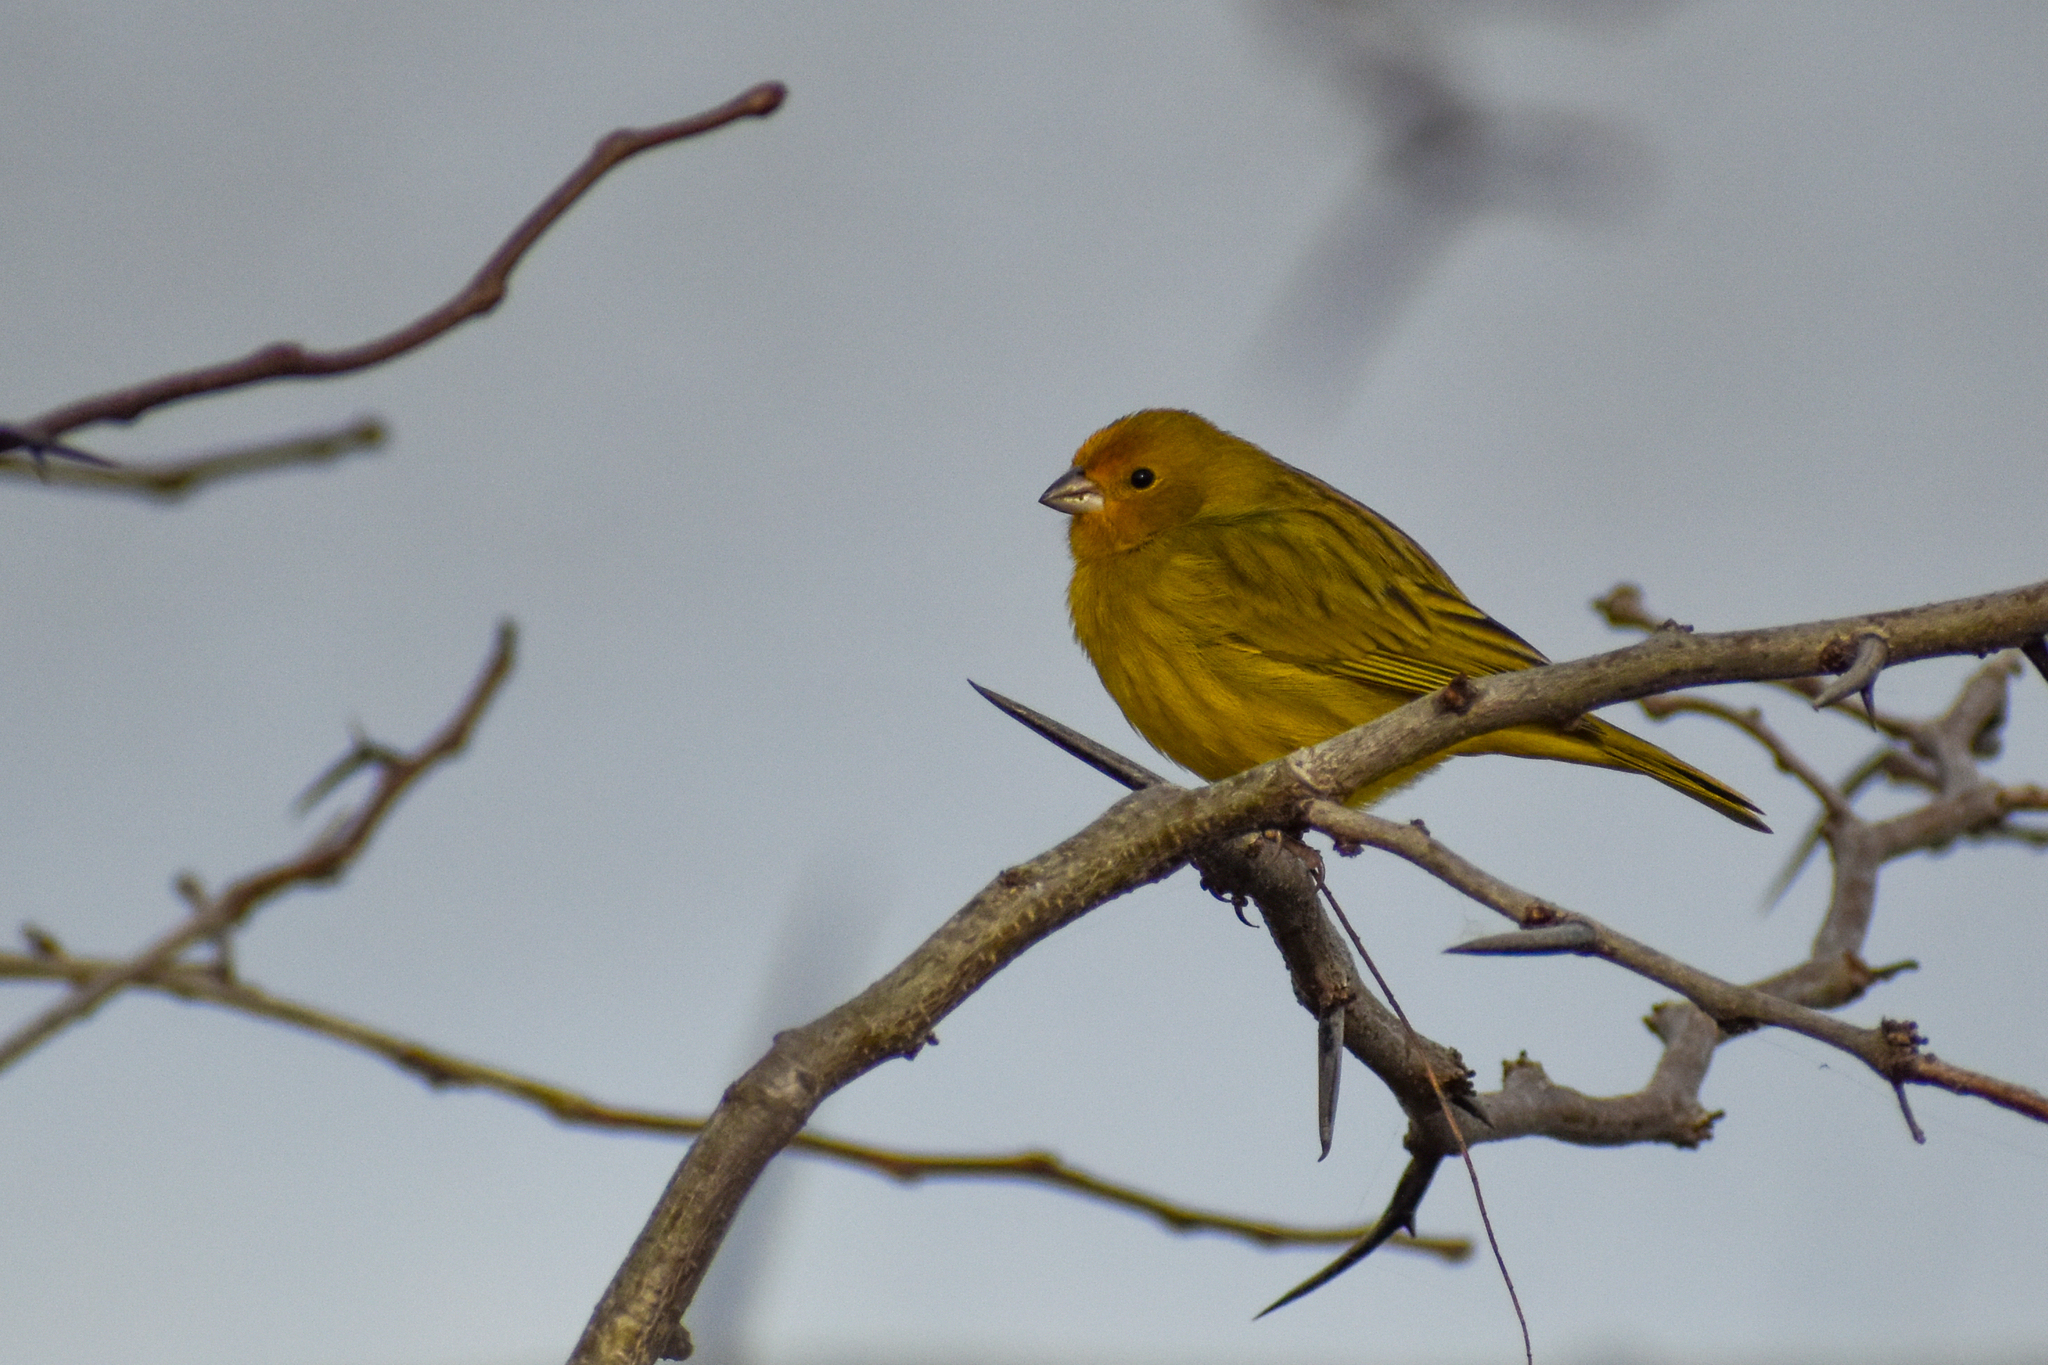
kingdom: Animalia
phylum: Chordata
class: Aves
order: Passeriformes
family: Thraupidae
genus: Sicalis
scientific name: Sicalis flaveola
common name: Saffron finch
